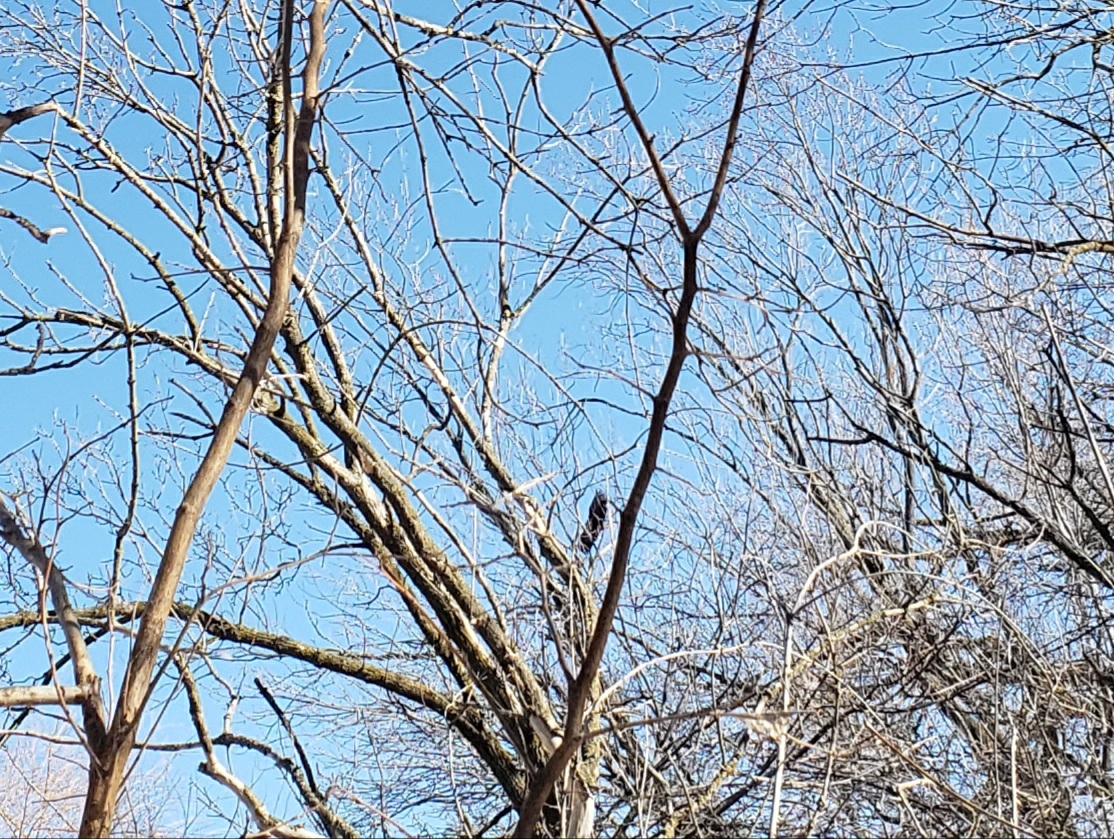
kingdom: Animalia
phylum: Chordata
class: Aves
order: Accipitriformes
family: Accipitridae
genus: Haliaeetus
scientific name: Haliaeetus leucocephalus
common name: Bald eagle
